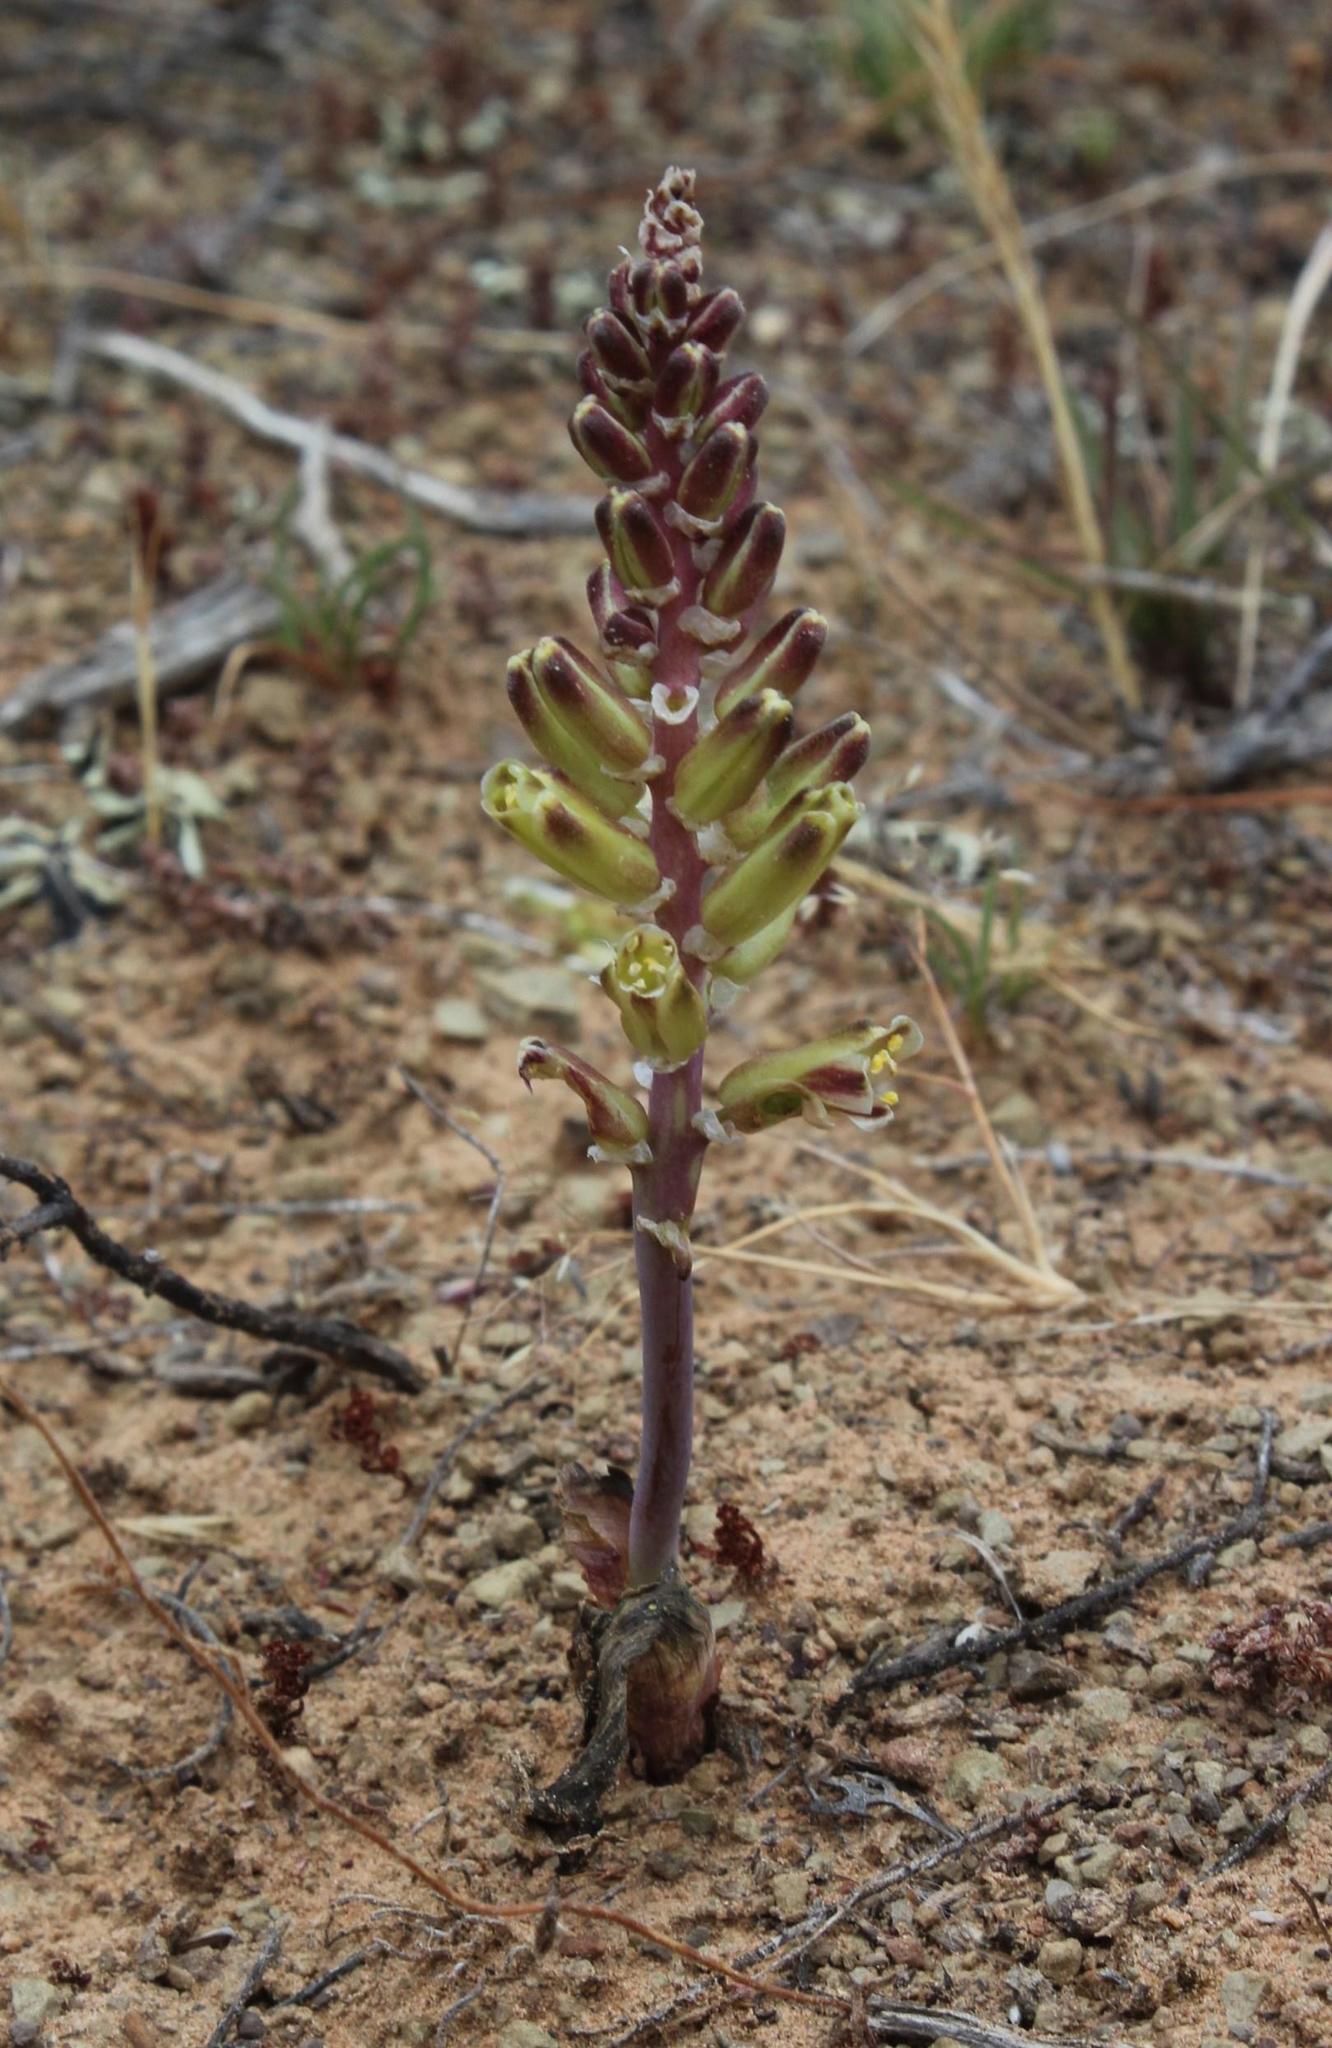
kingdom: Plantae
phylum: Tracheophyta
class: Liliopsida
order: Asparagales
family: Asparagaceae
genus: Pseudolachenalia
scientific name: Pseudolachenalia
